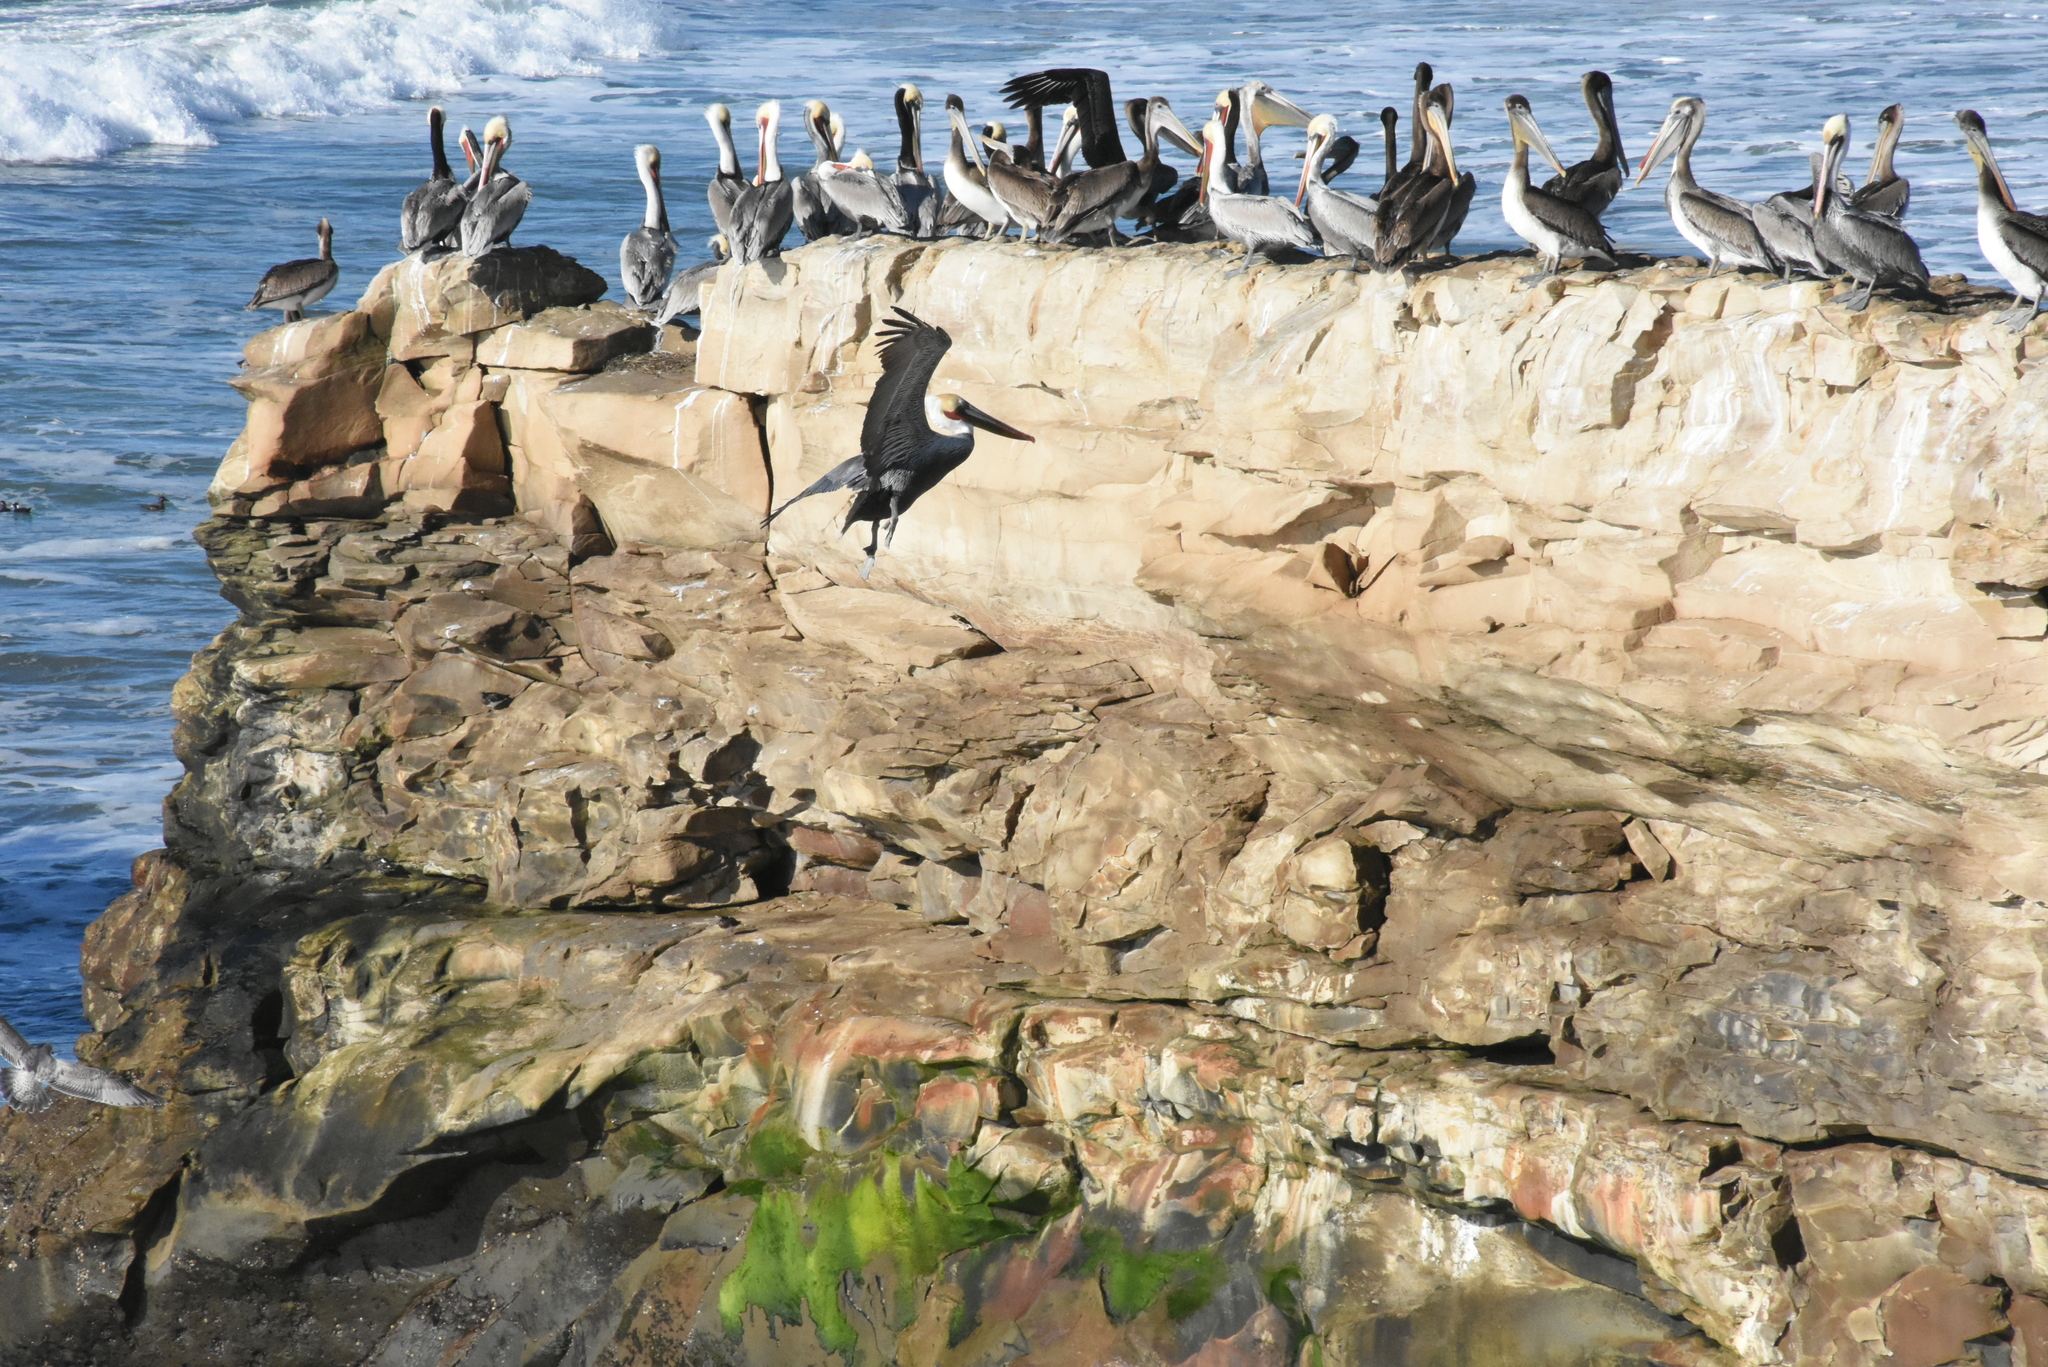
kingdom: Animalia
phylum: Chordata
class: Aves
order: Pelecaniformes
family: Pelecanidae
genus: Pelecanus
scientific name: Pelecanus occidentalis
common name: Brown pelican
